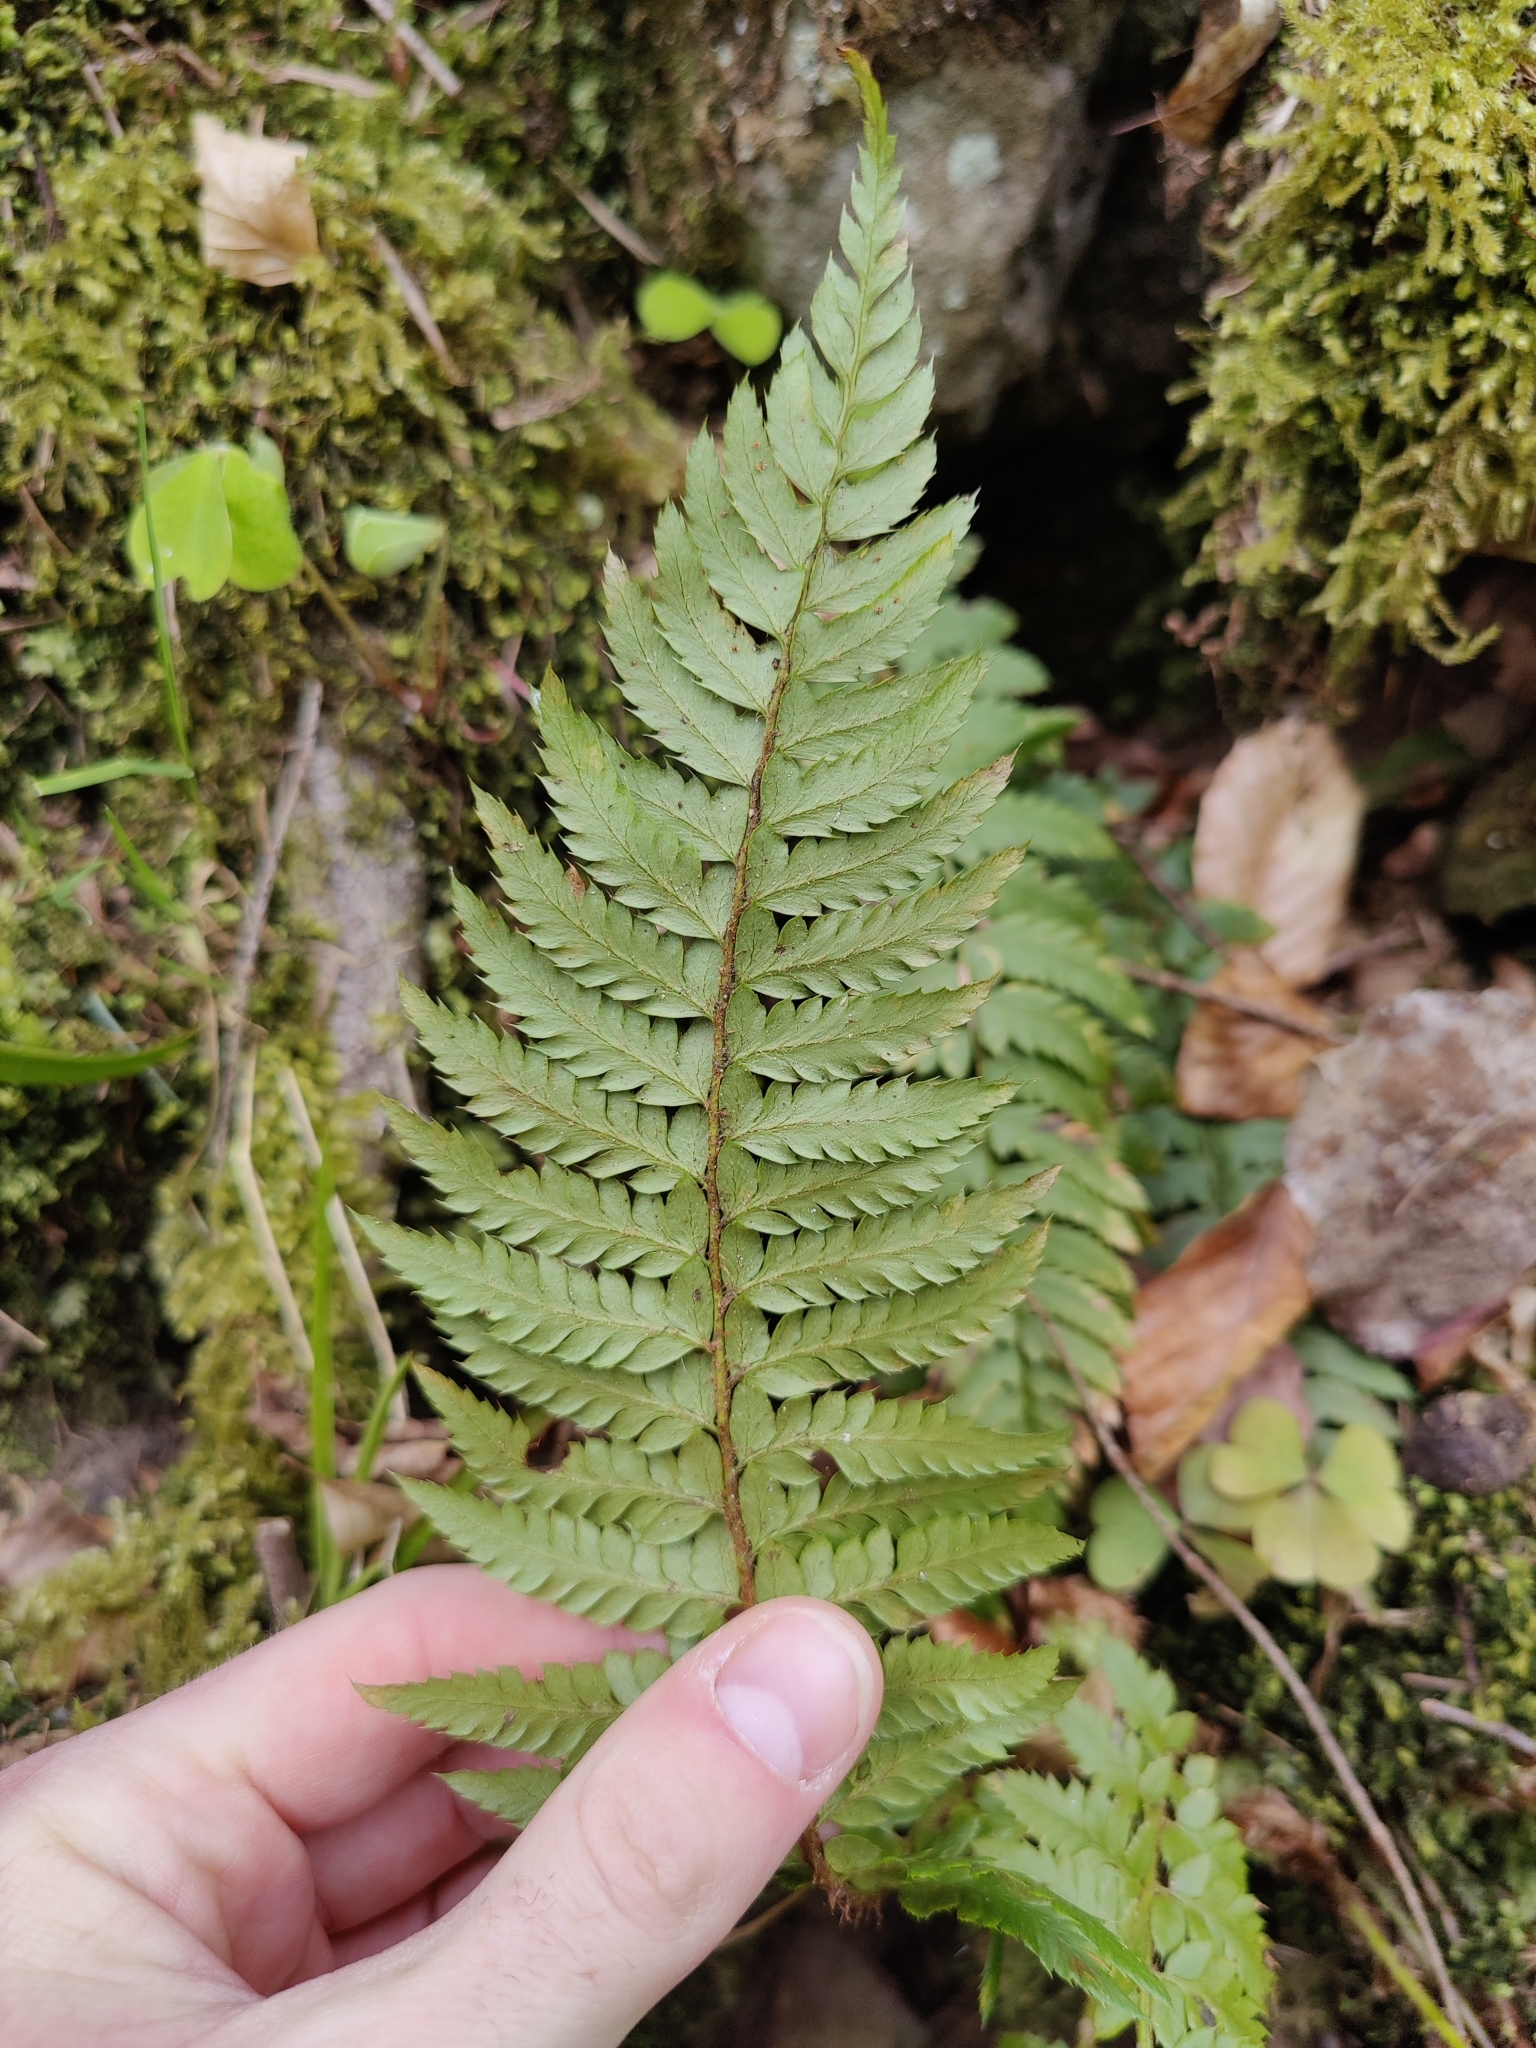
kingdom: Plantae
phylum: Tracheophyta
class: Polypodiopsida
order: Polypodiales
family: Dryopteridaceae
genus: Polystichum
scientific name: Polystichum aculeatum
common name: Hard shield-fern
